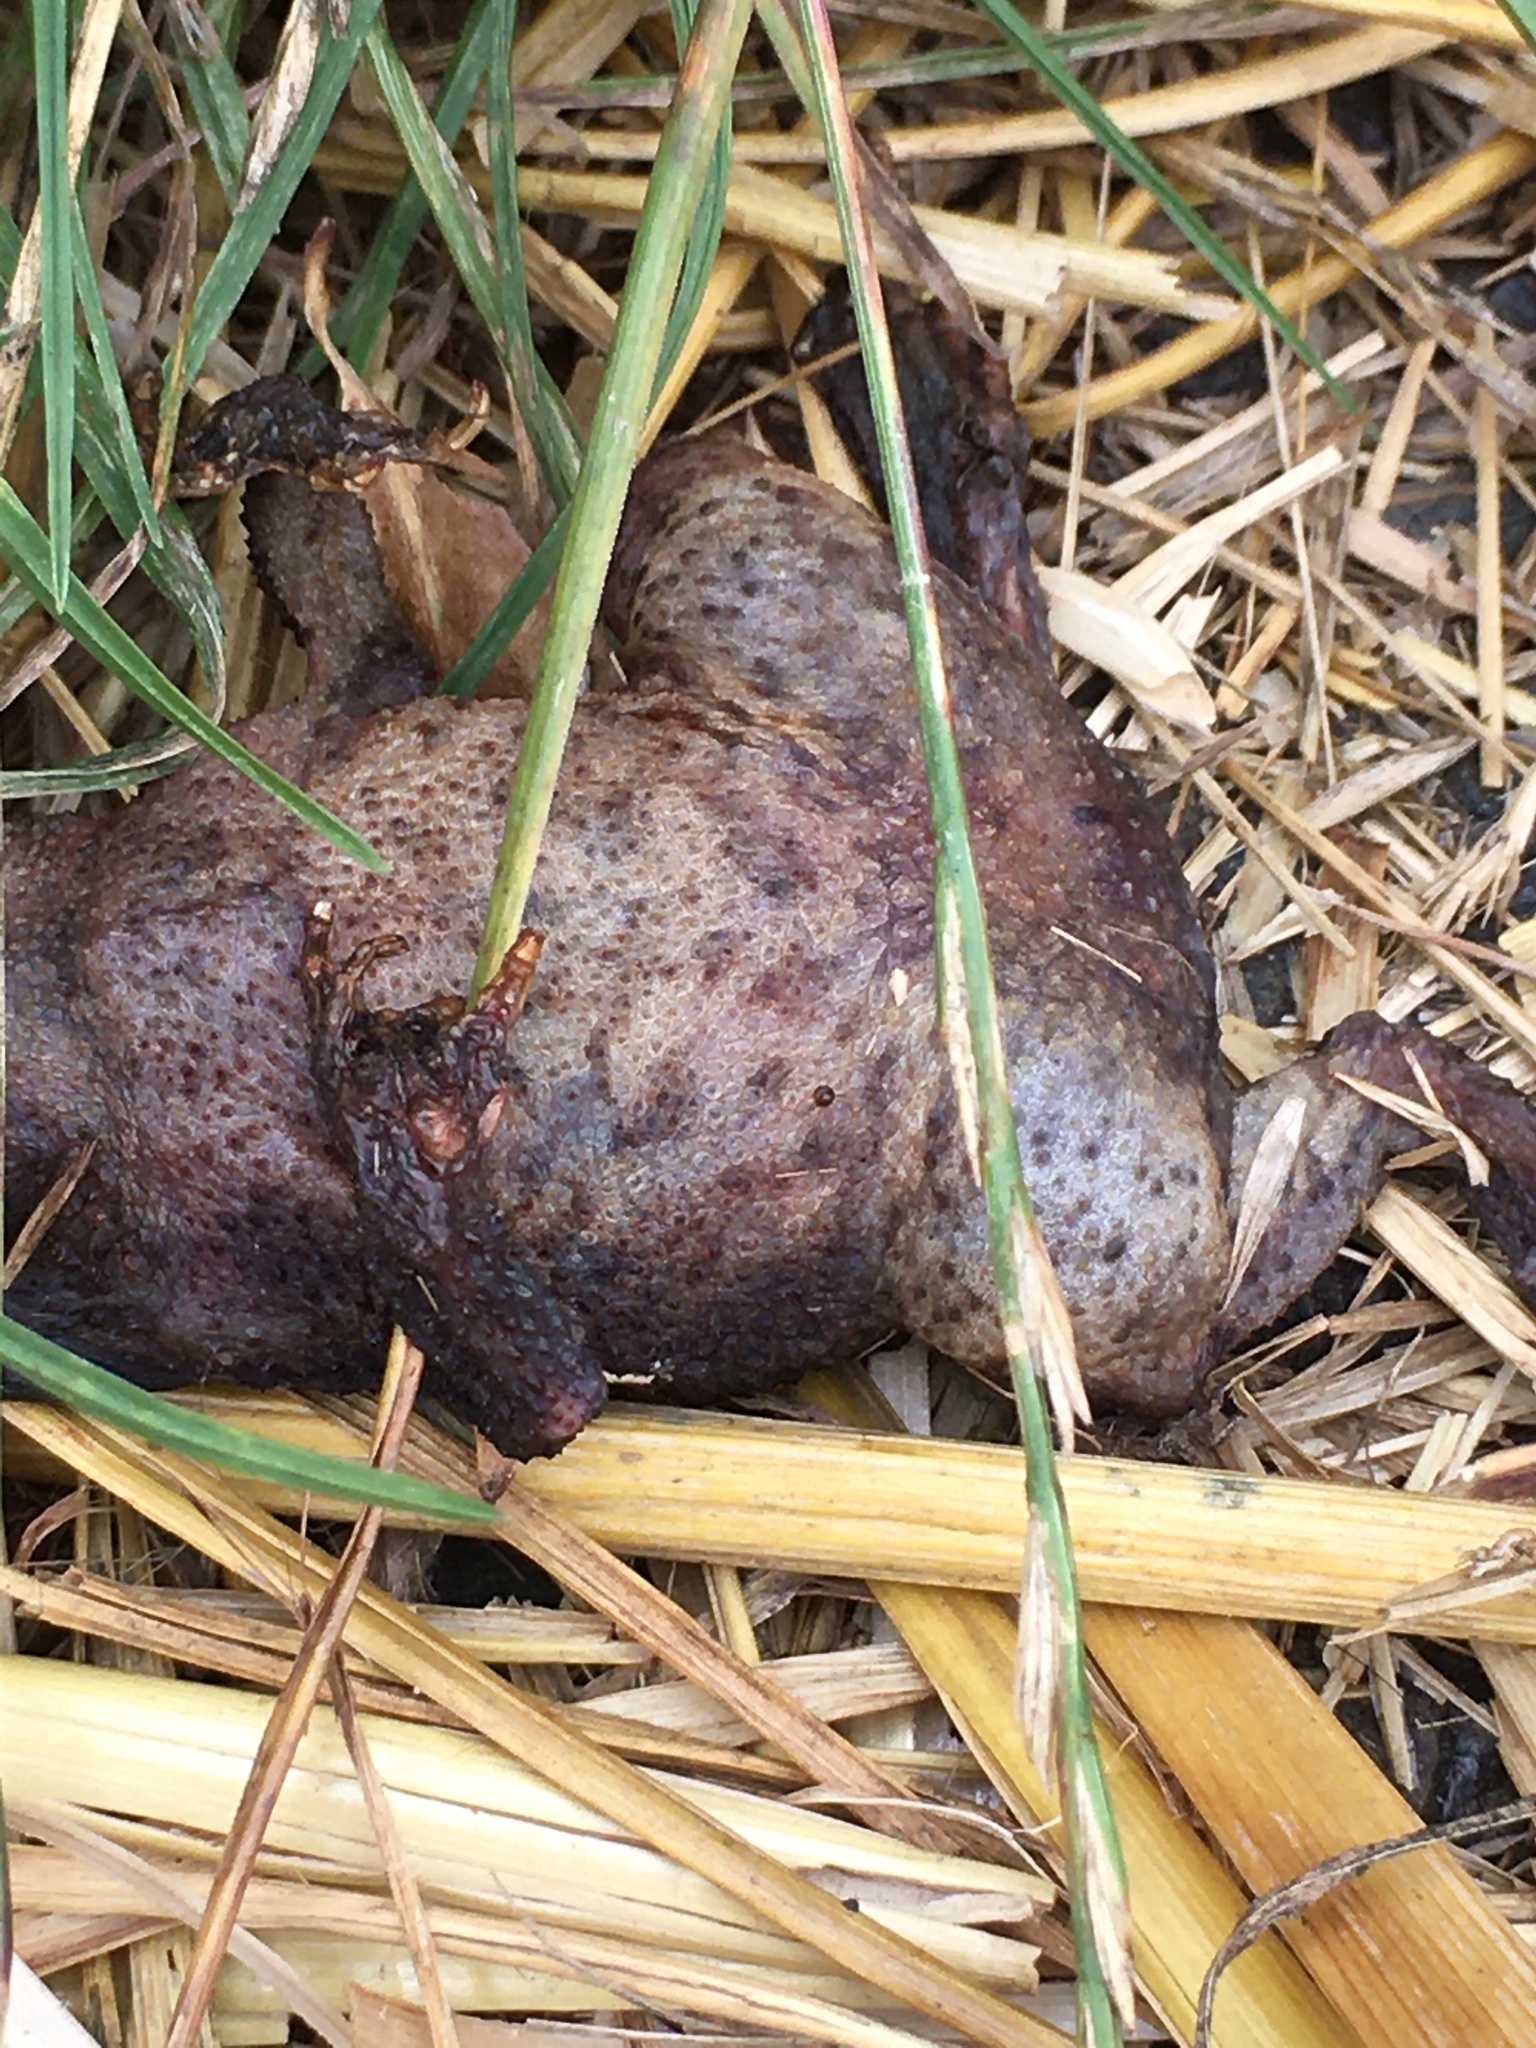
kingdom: Animalia
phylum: Chordata
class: Amphibia
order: Anura
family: Bufonidae
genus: Bufo
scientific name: Bufo bufo
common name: Common toad
